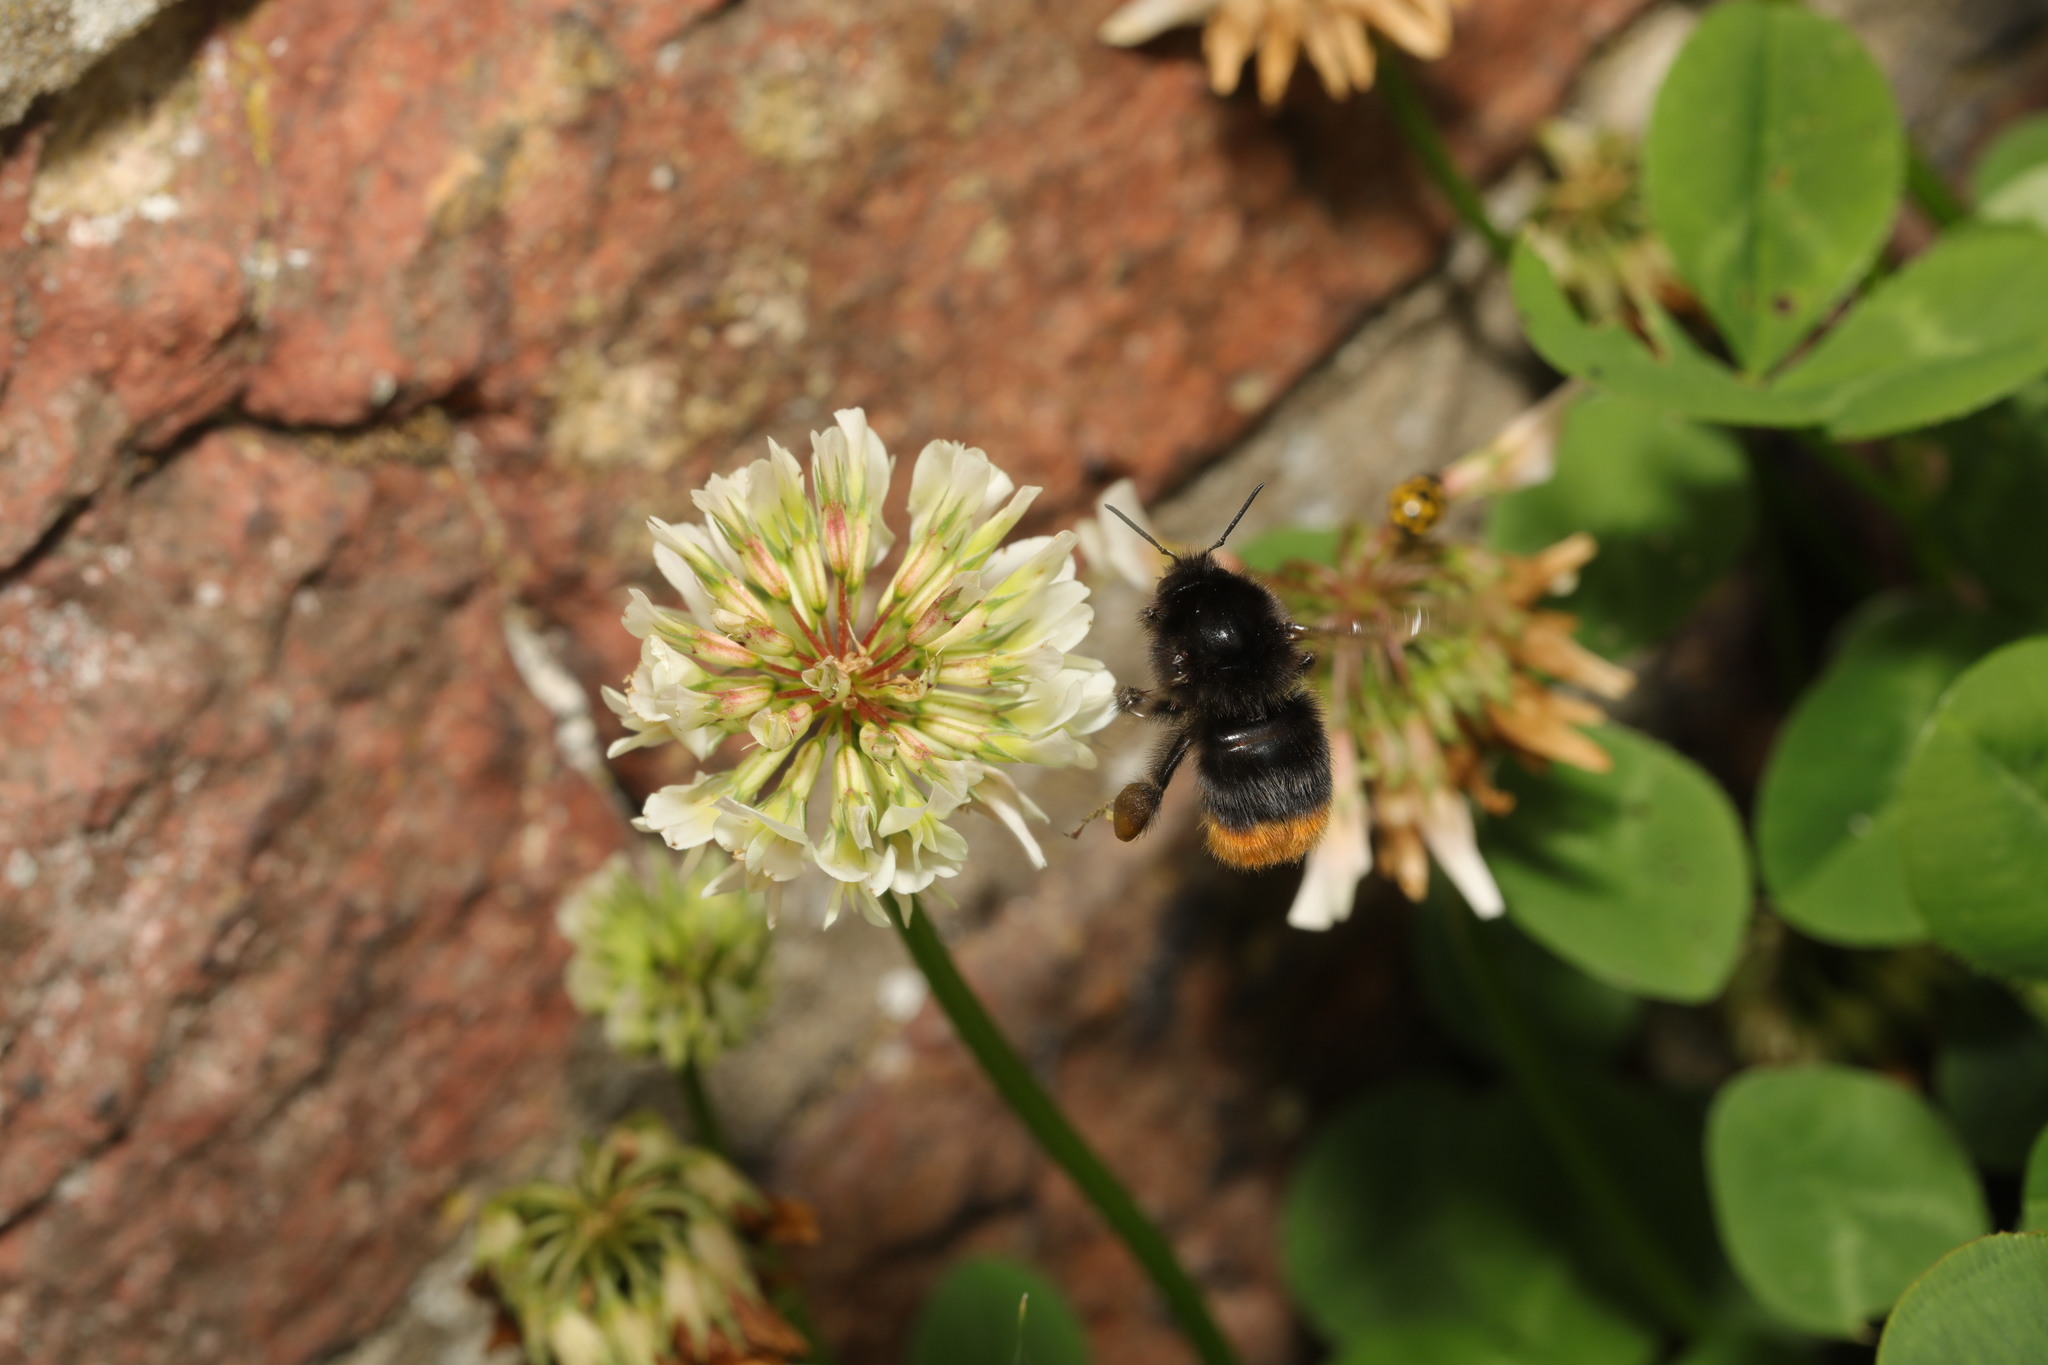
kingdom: Animalia
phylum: Arthropoda
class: Insecta
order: Hymenoptera
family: Apidae
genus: Bombus
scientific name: Bombus lapidarius
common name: Large red-tailed humble-bee
